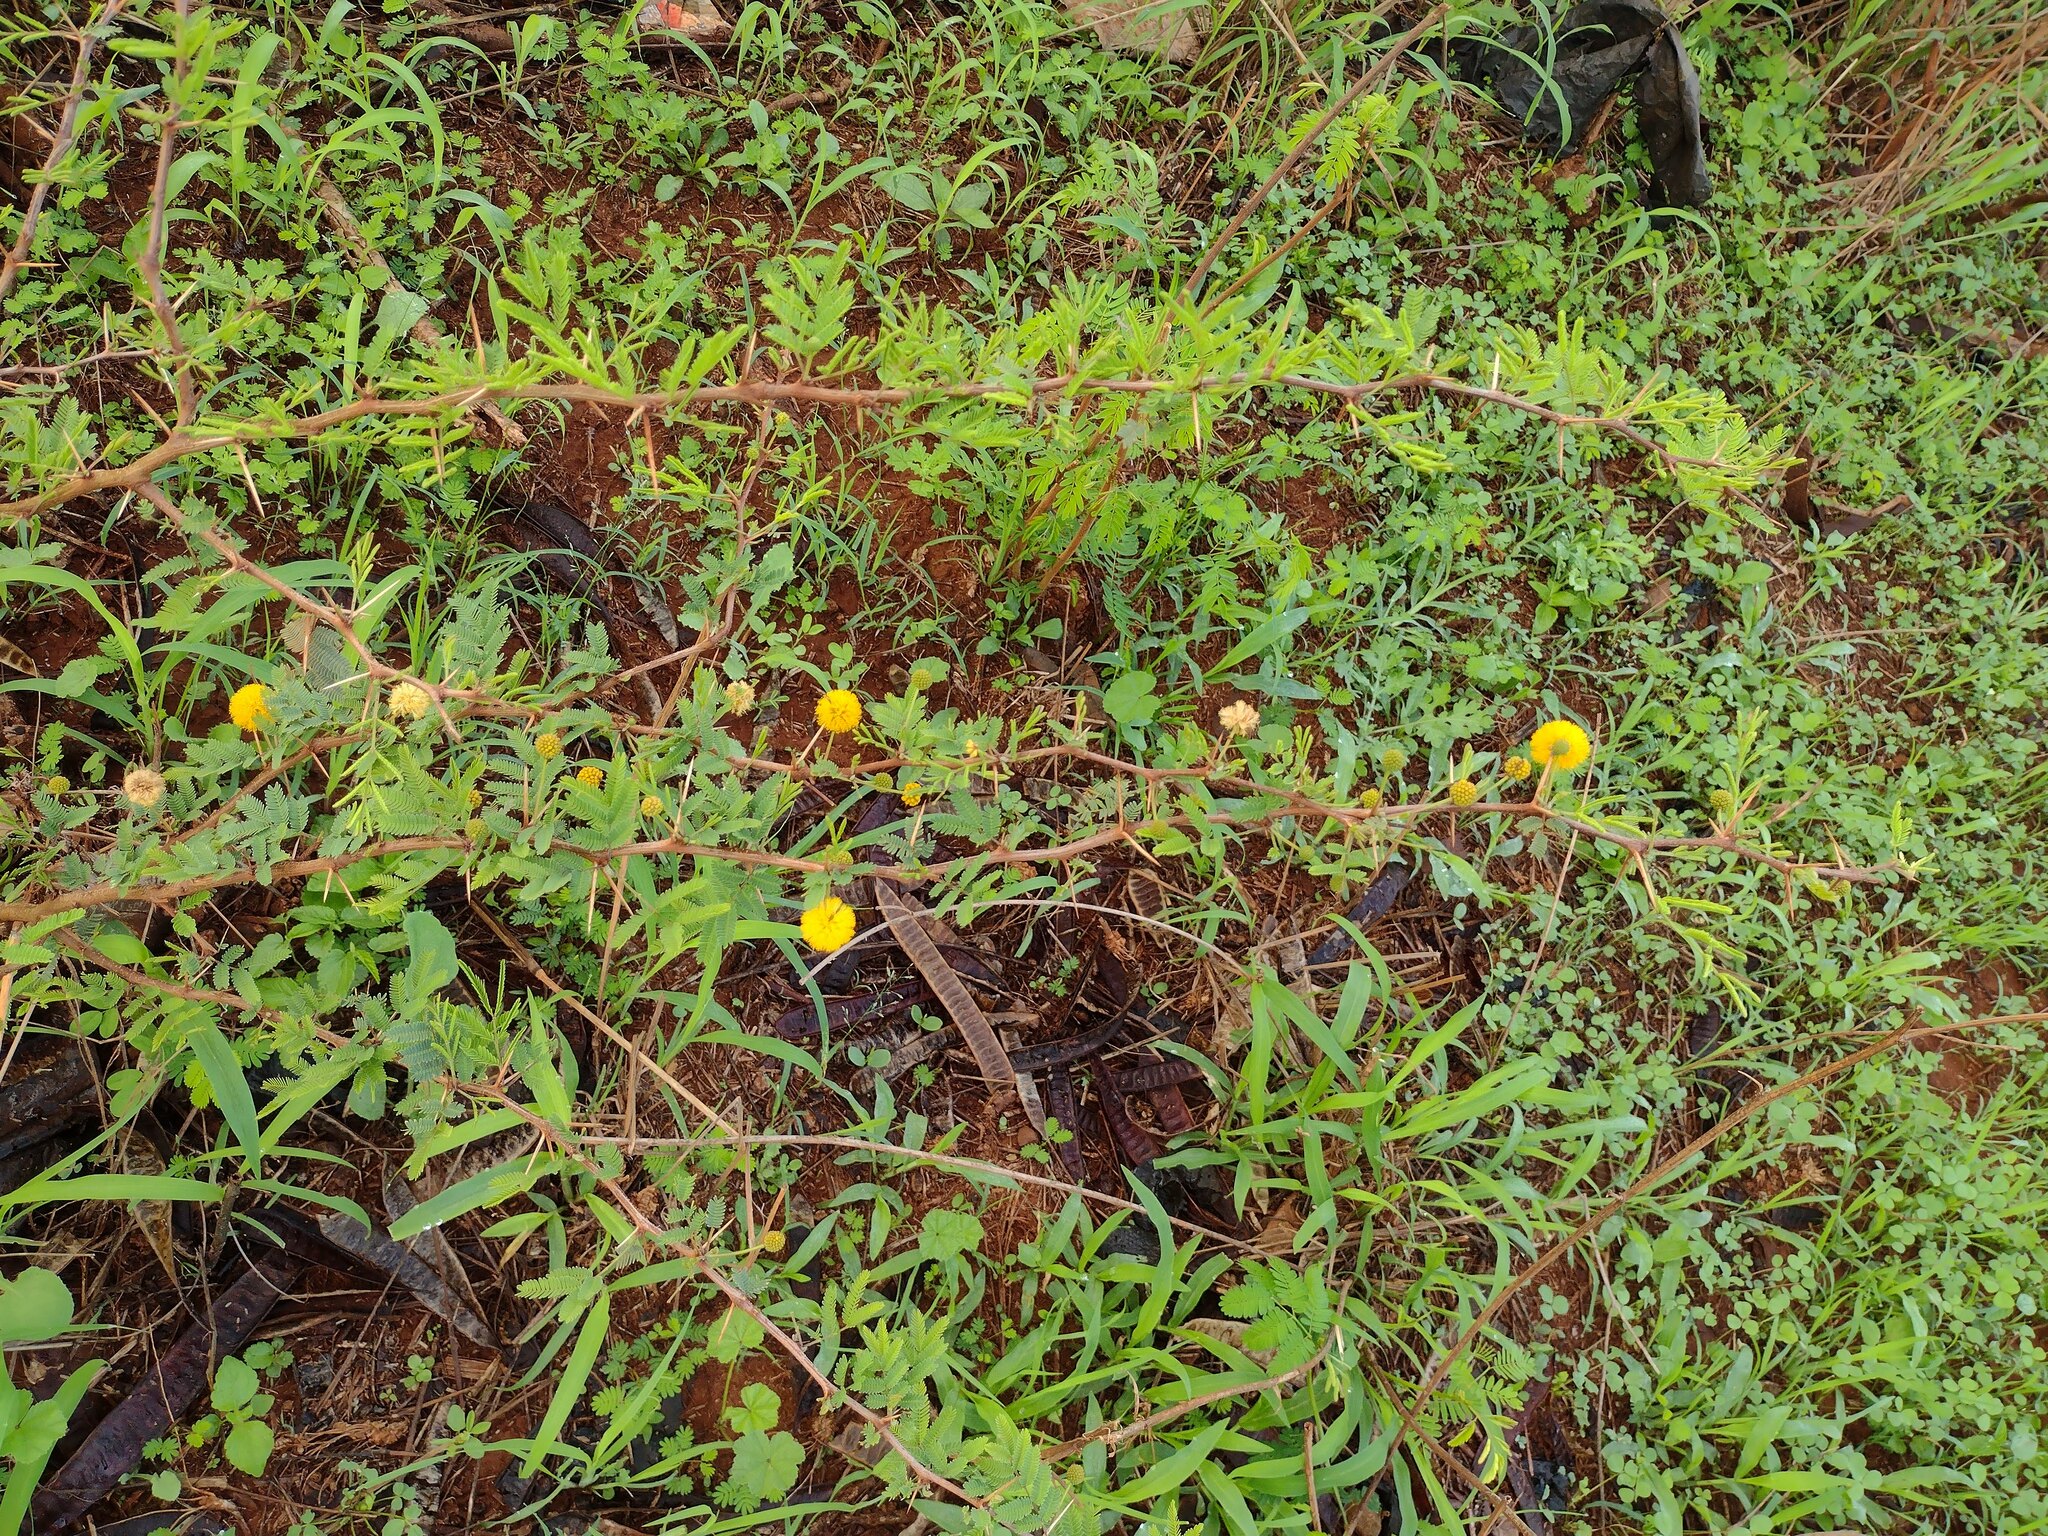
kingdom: Plantae
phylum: Tracheophyta
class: Magnoliopsida
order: Fabales
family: Fabaceae
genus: Vachellia
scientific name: Vachellia farnesiana
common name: Sweet acacia
